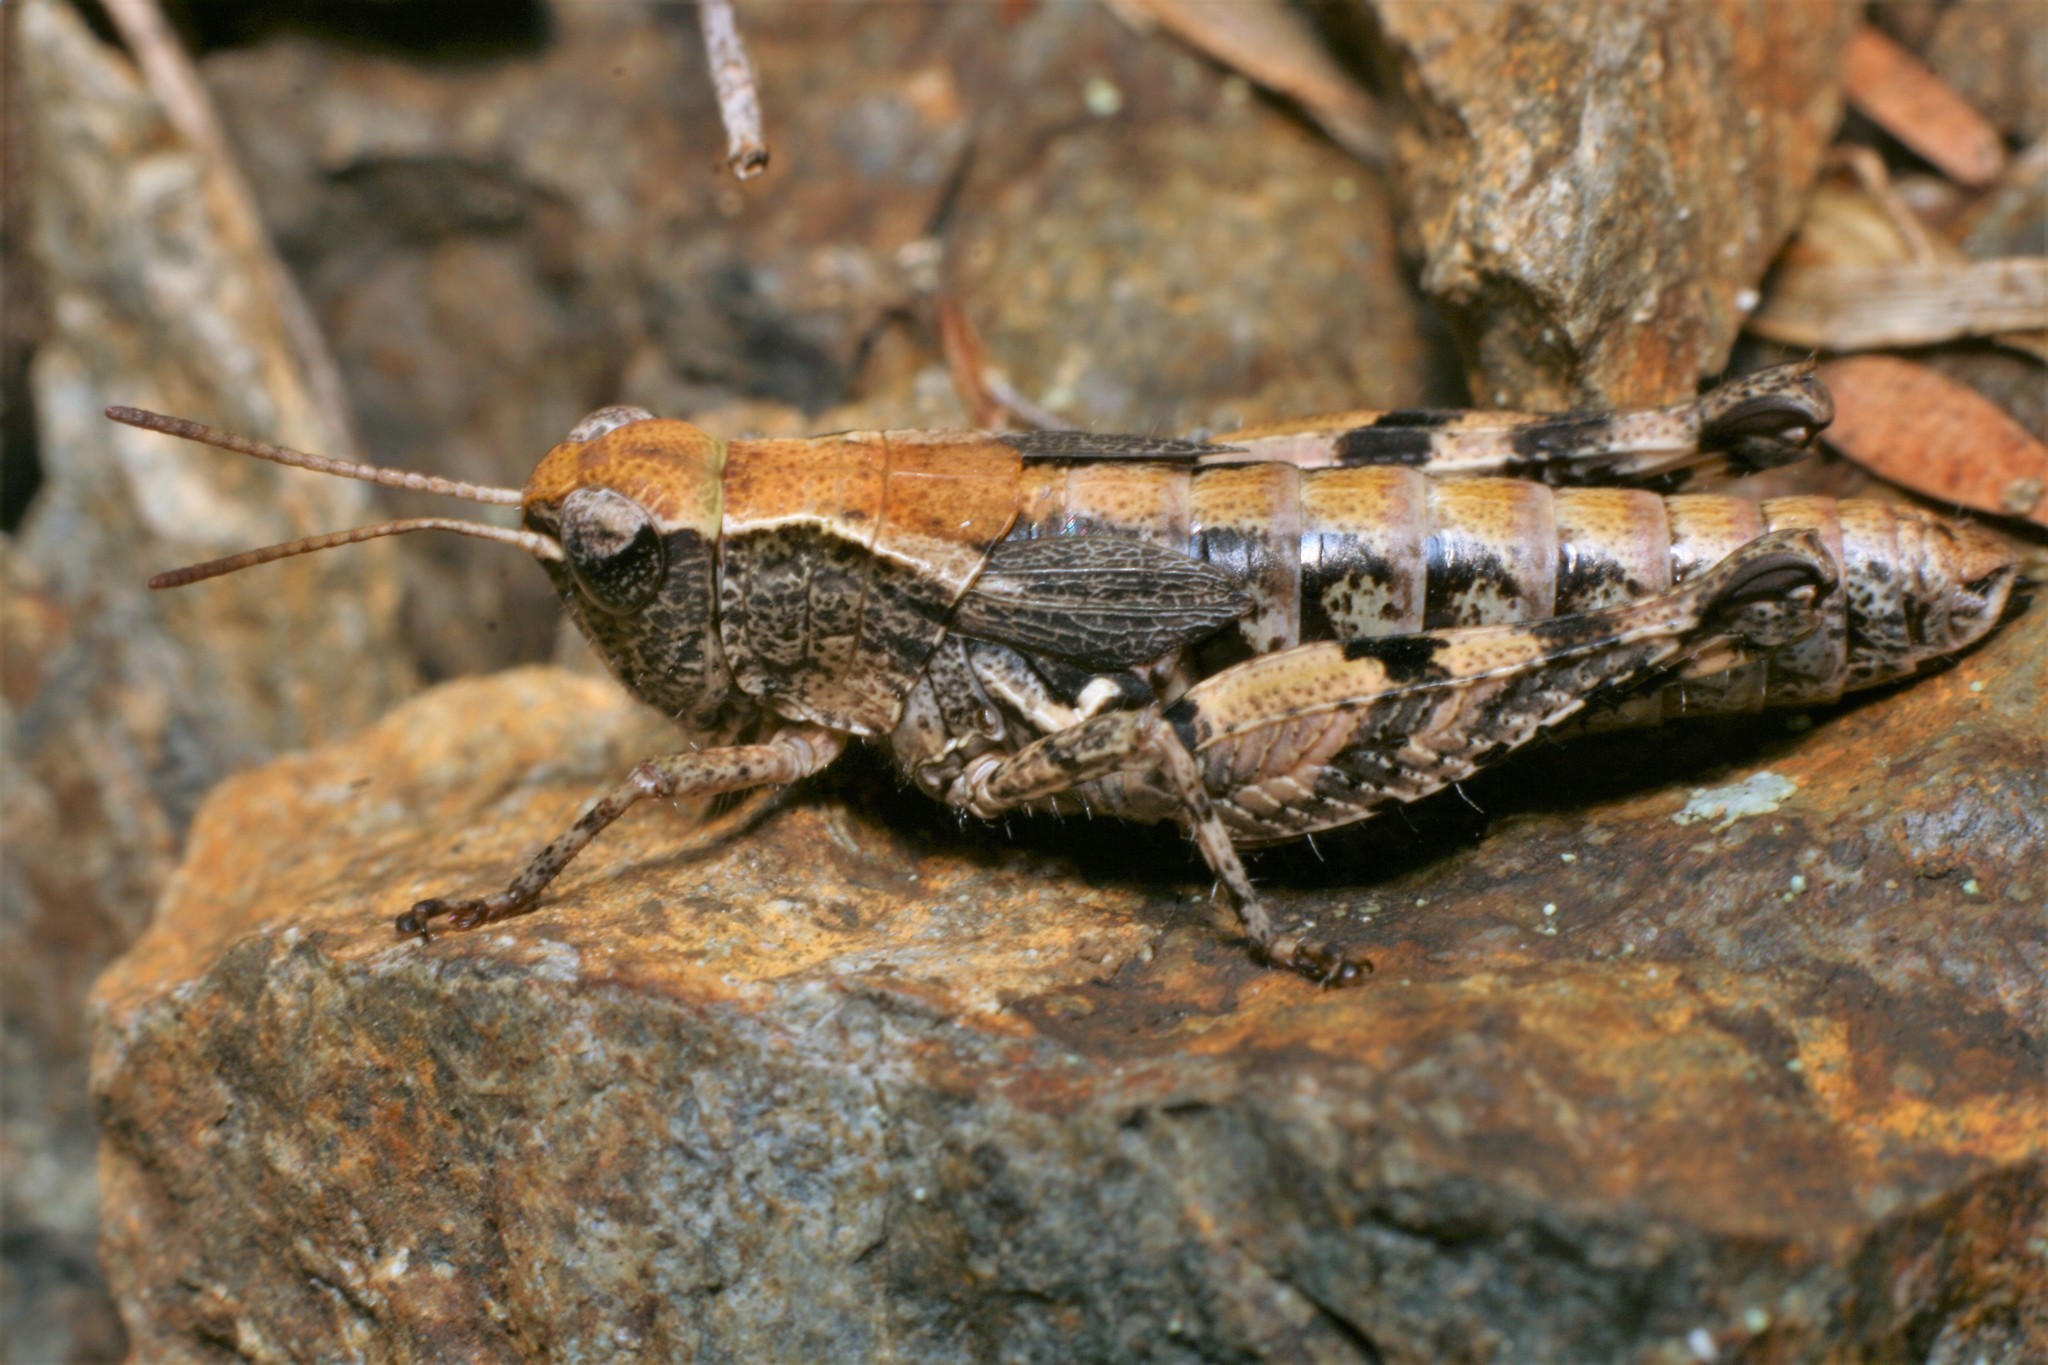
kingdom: Animalia
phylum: Arthropoda
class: Insecta
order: Orthoptera
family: Acrididae
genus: Phaulacridium
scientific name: Phaulacridium marginale
